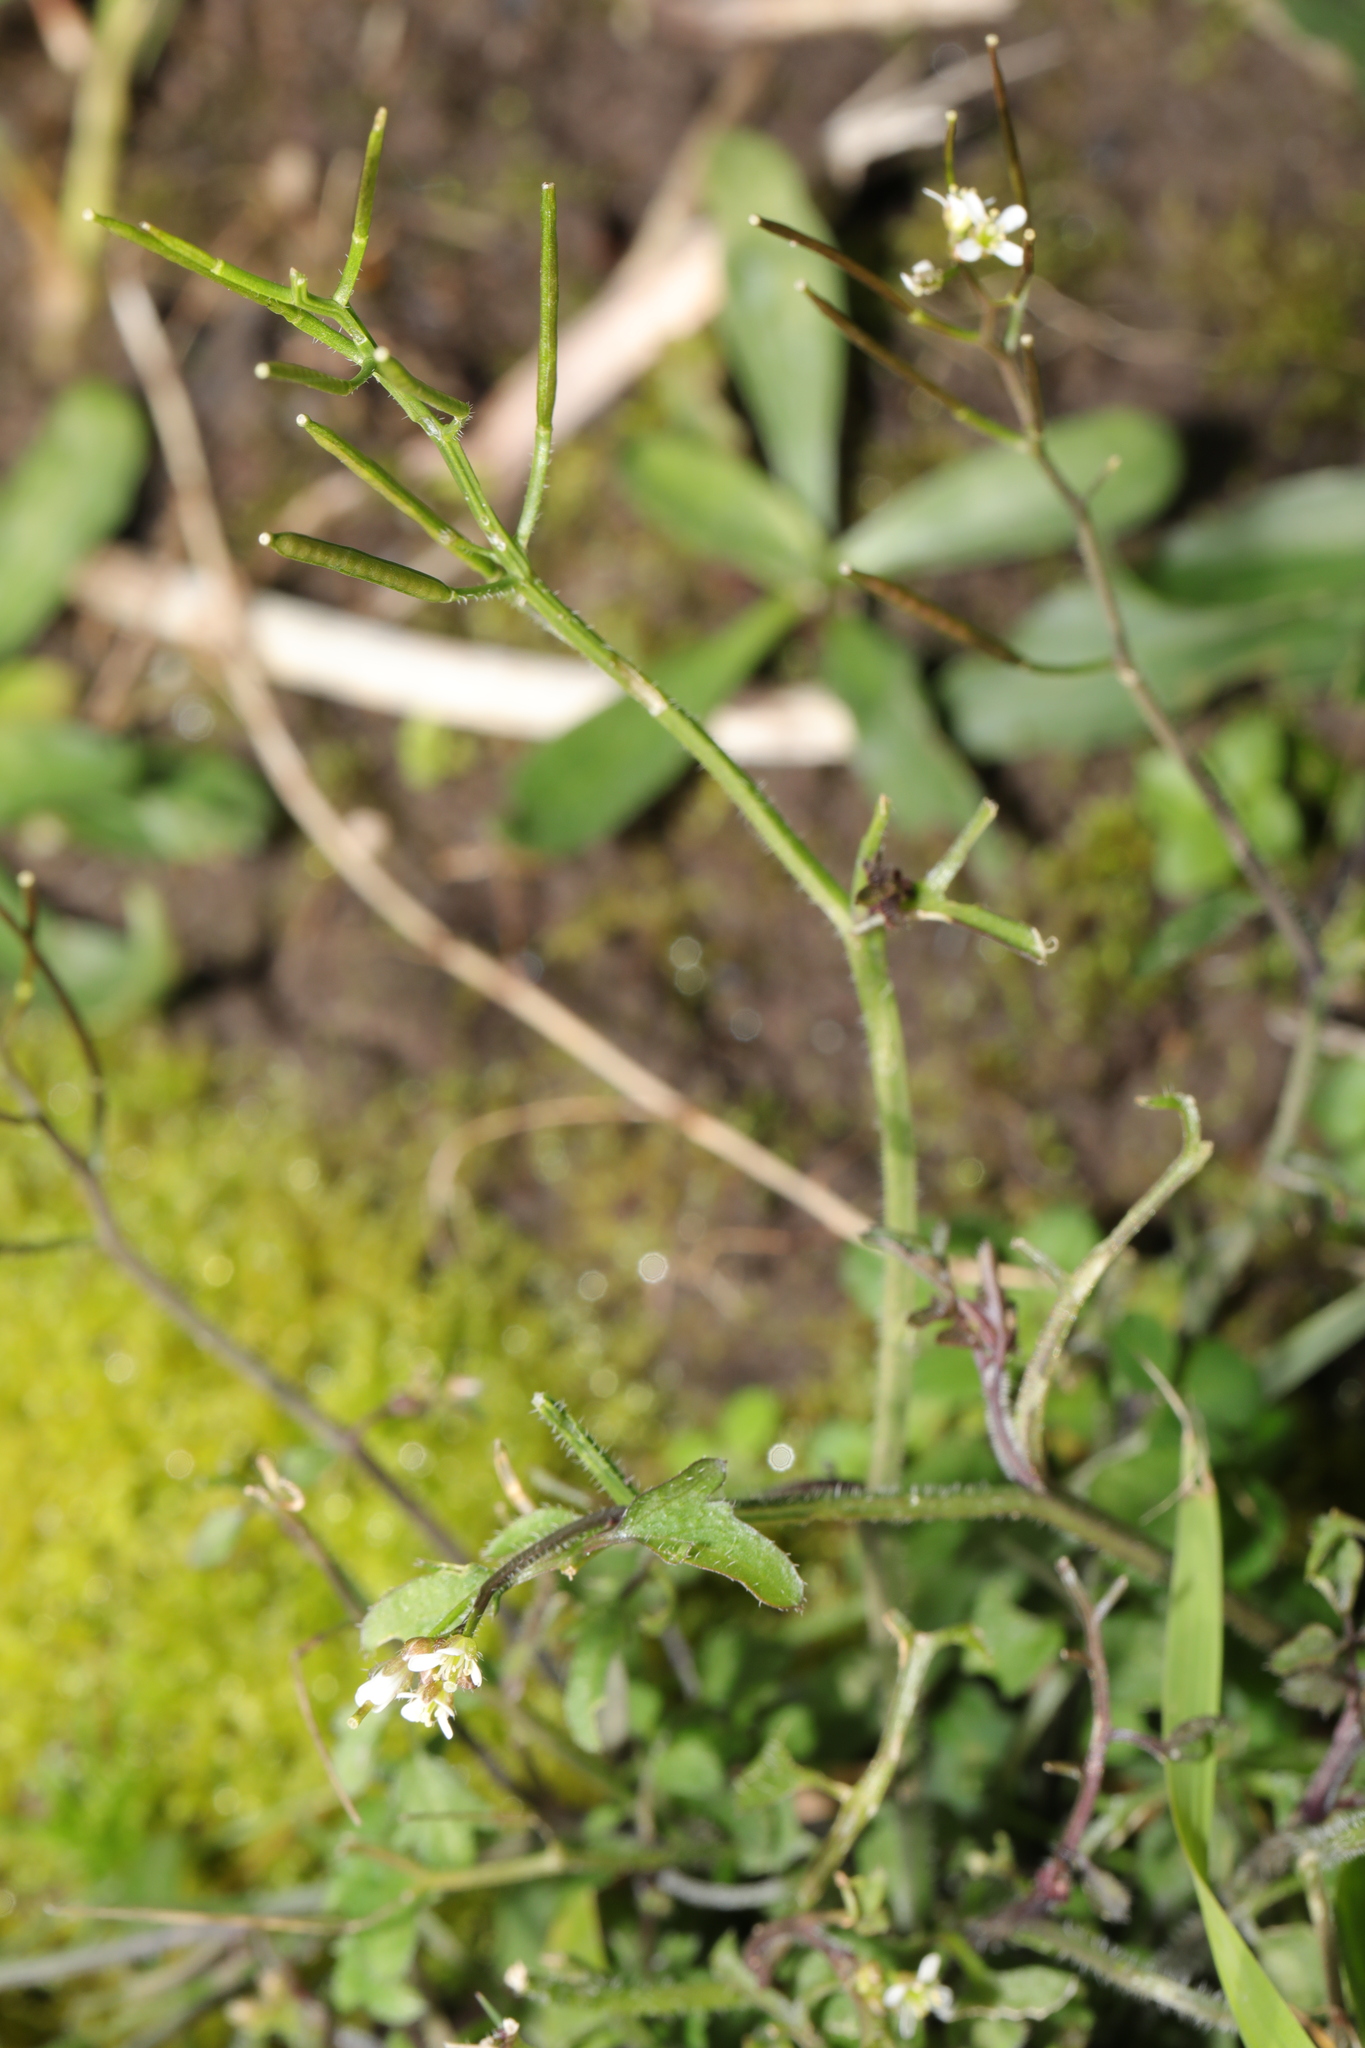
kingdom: Plantae
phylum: Tracheophyta
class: Magnoliopsida
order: Brassicales
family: Brassicaceae
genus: Cardamine
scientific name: Cardamine flexuosa
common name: Woodland bittercress
